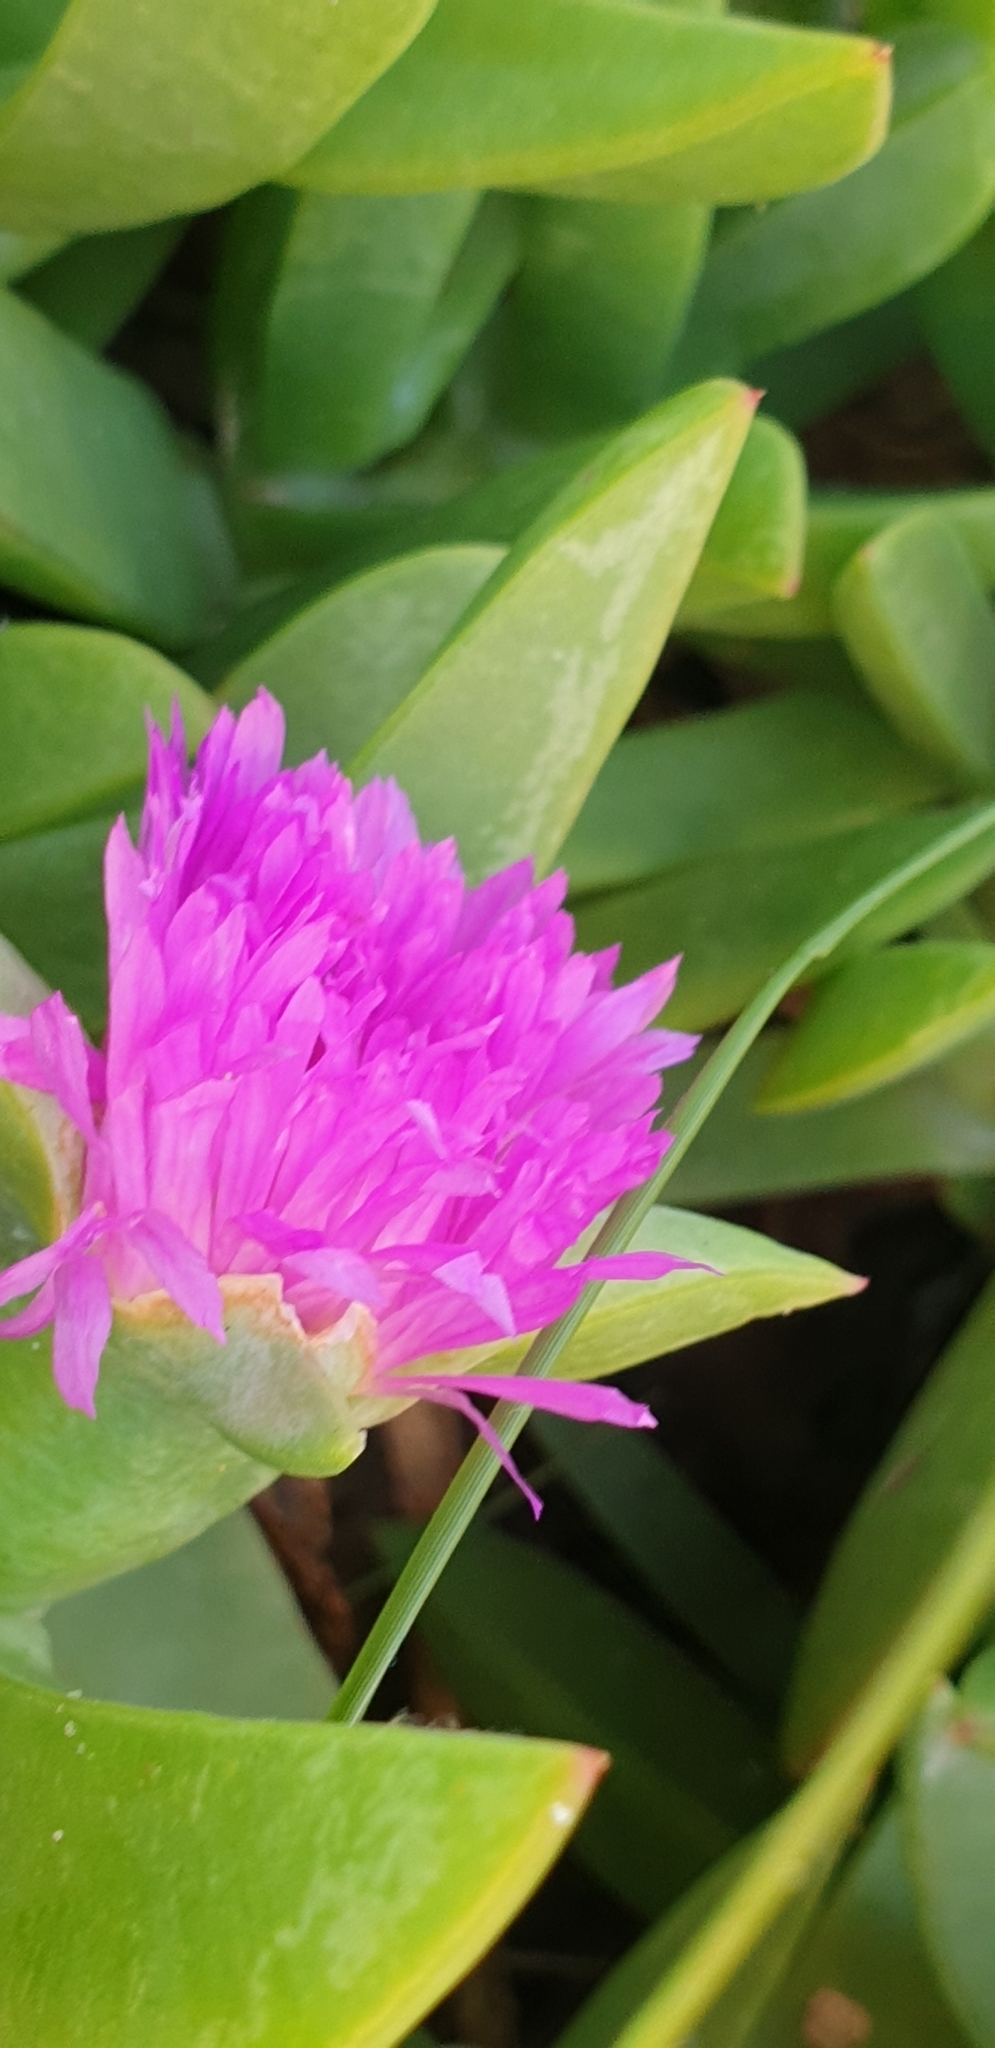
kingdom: Plantae
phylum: Tracheophyta
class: Magnoliopsida
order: Caryophyllales
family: Aizoaceae
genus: Carpobrotus
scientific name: Carpobrotus glaucescens
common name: Angular sea-fig
